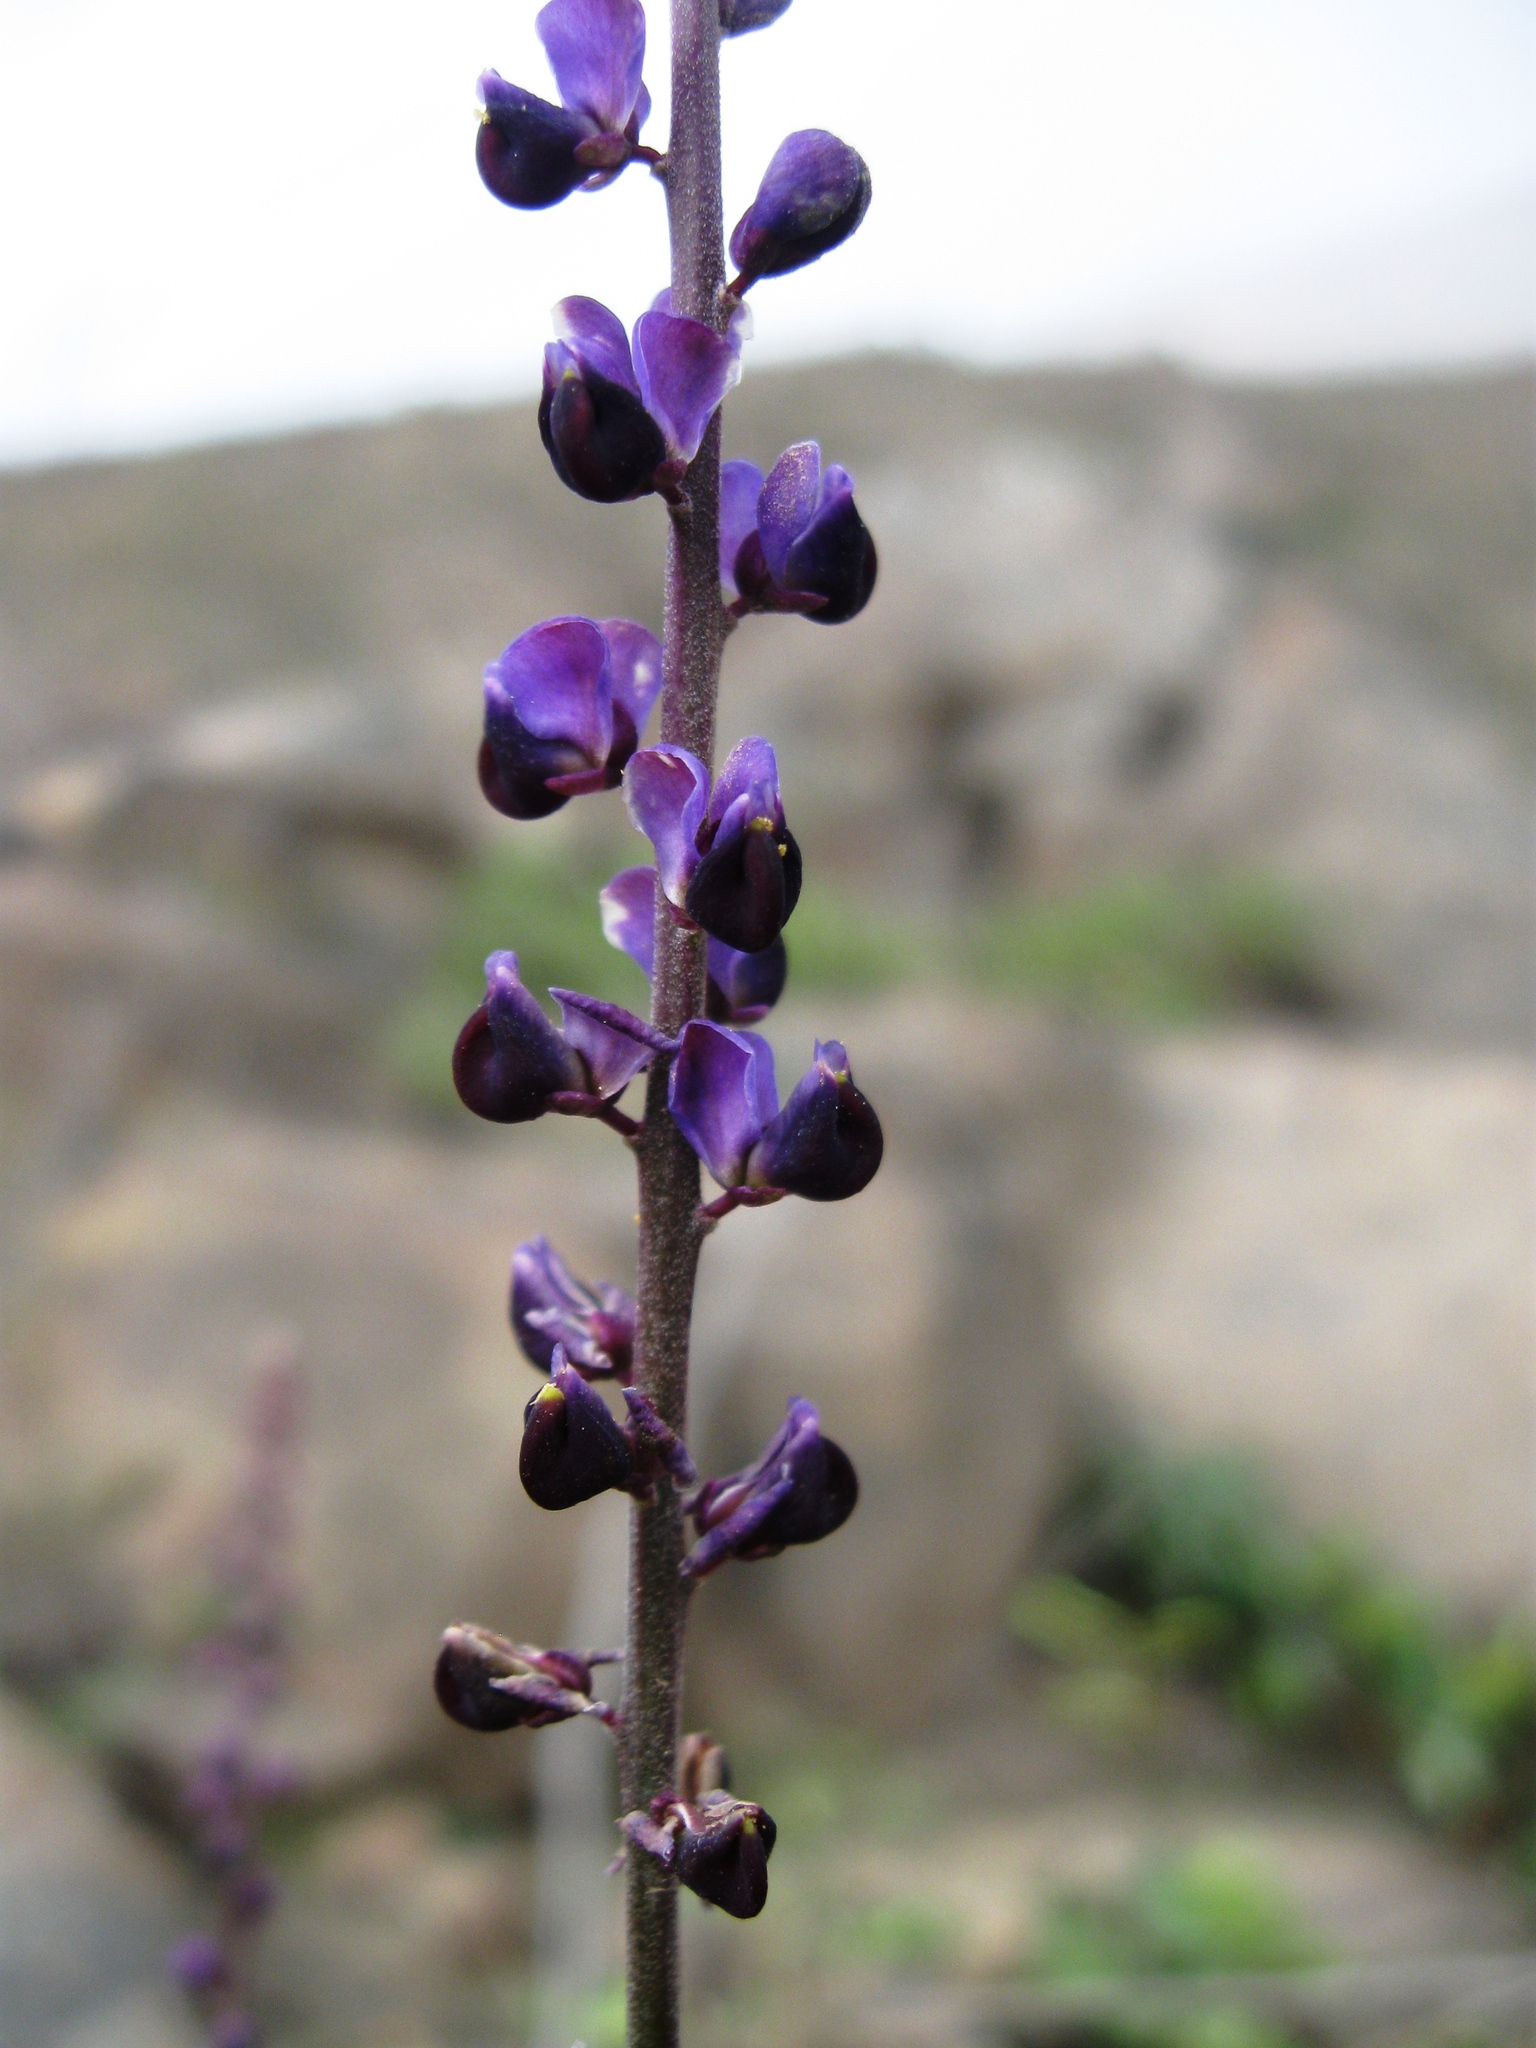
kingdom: Plantae
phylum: Tracheophyta
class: Magnoliopsida
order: Fabales
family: Polygalaceae
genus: Monnina
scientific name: Monnina pterocarpa
